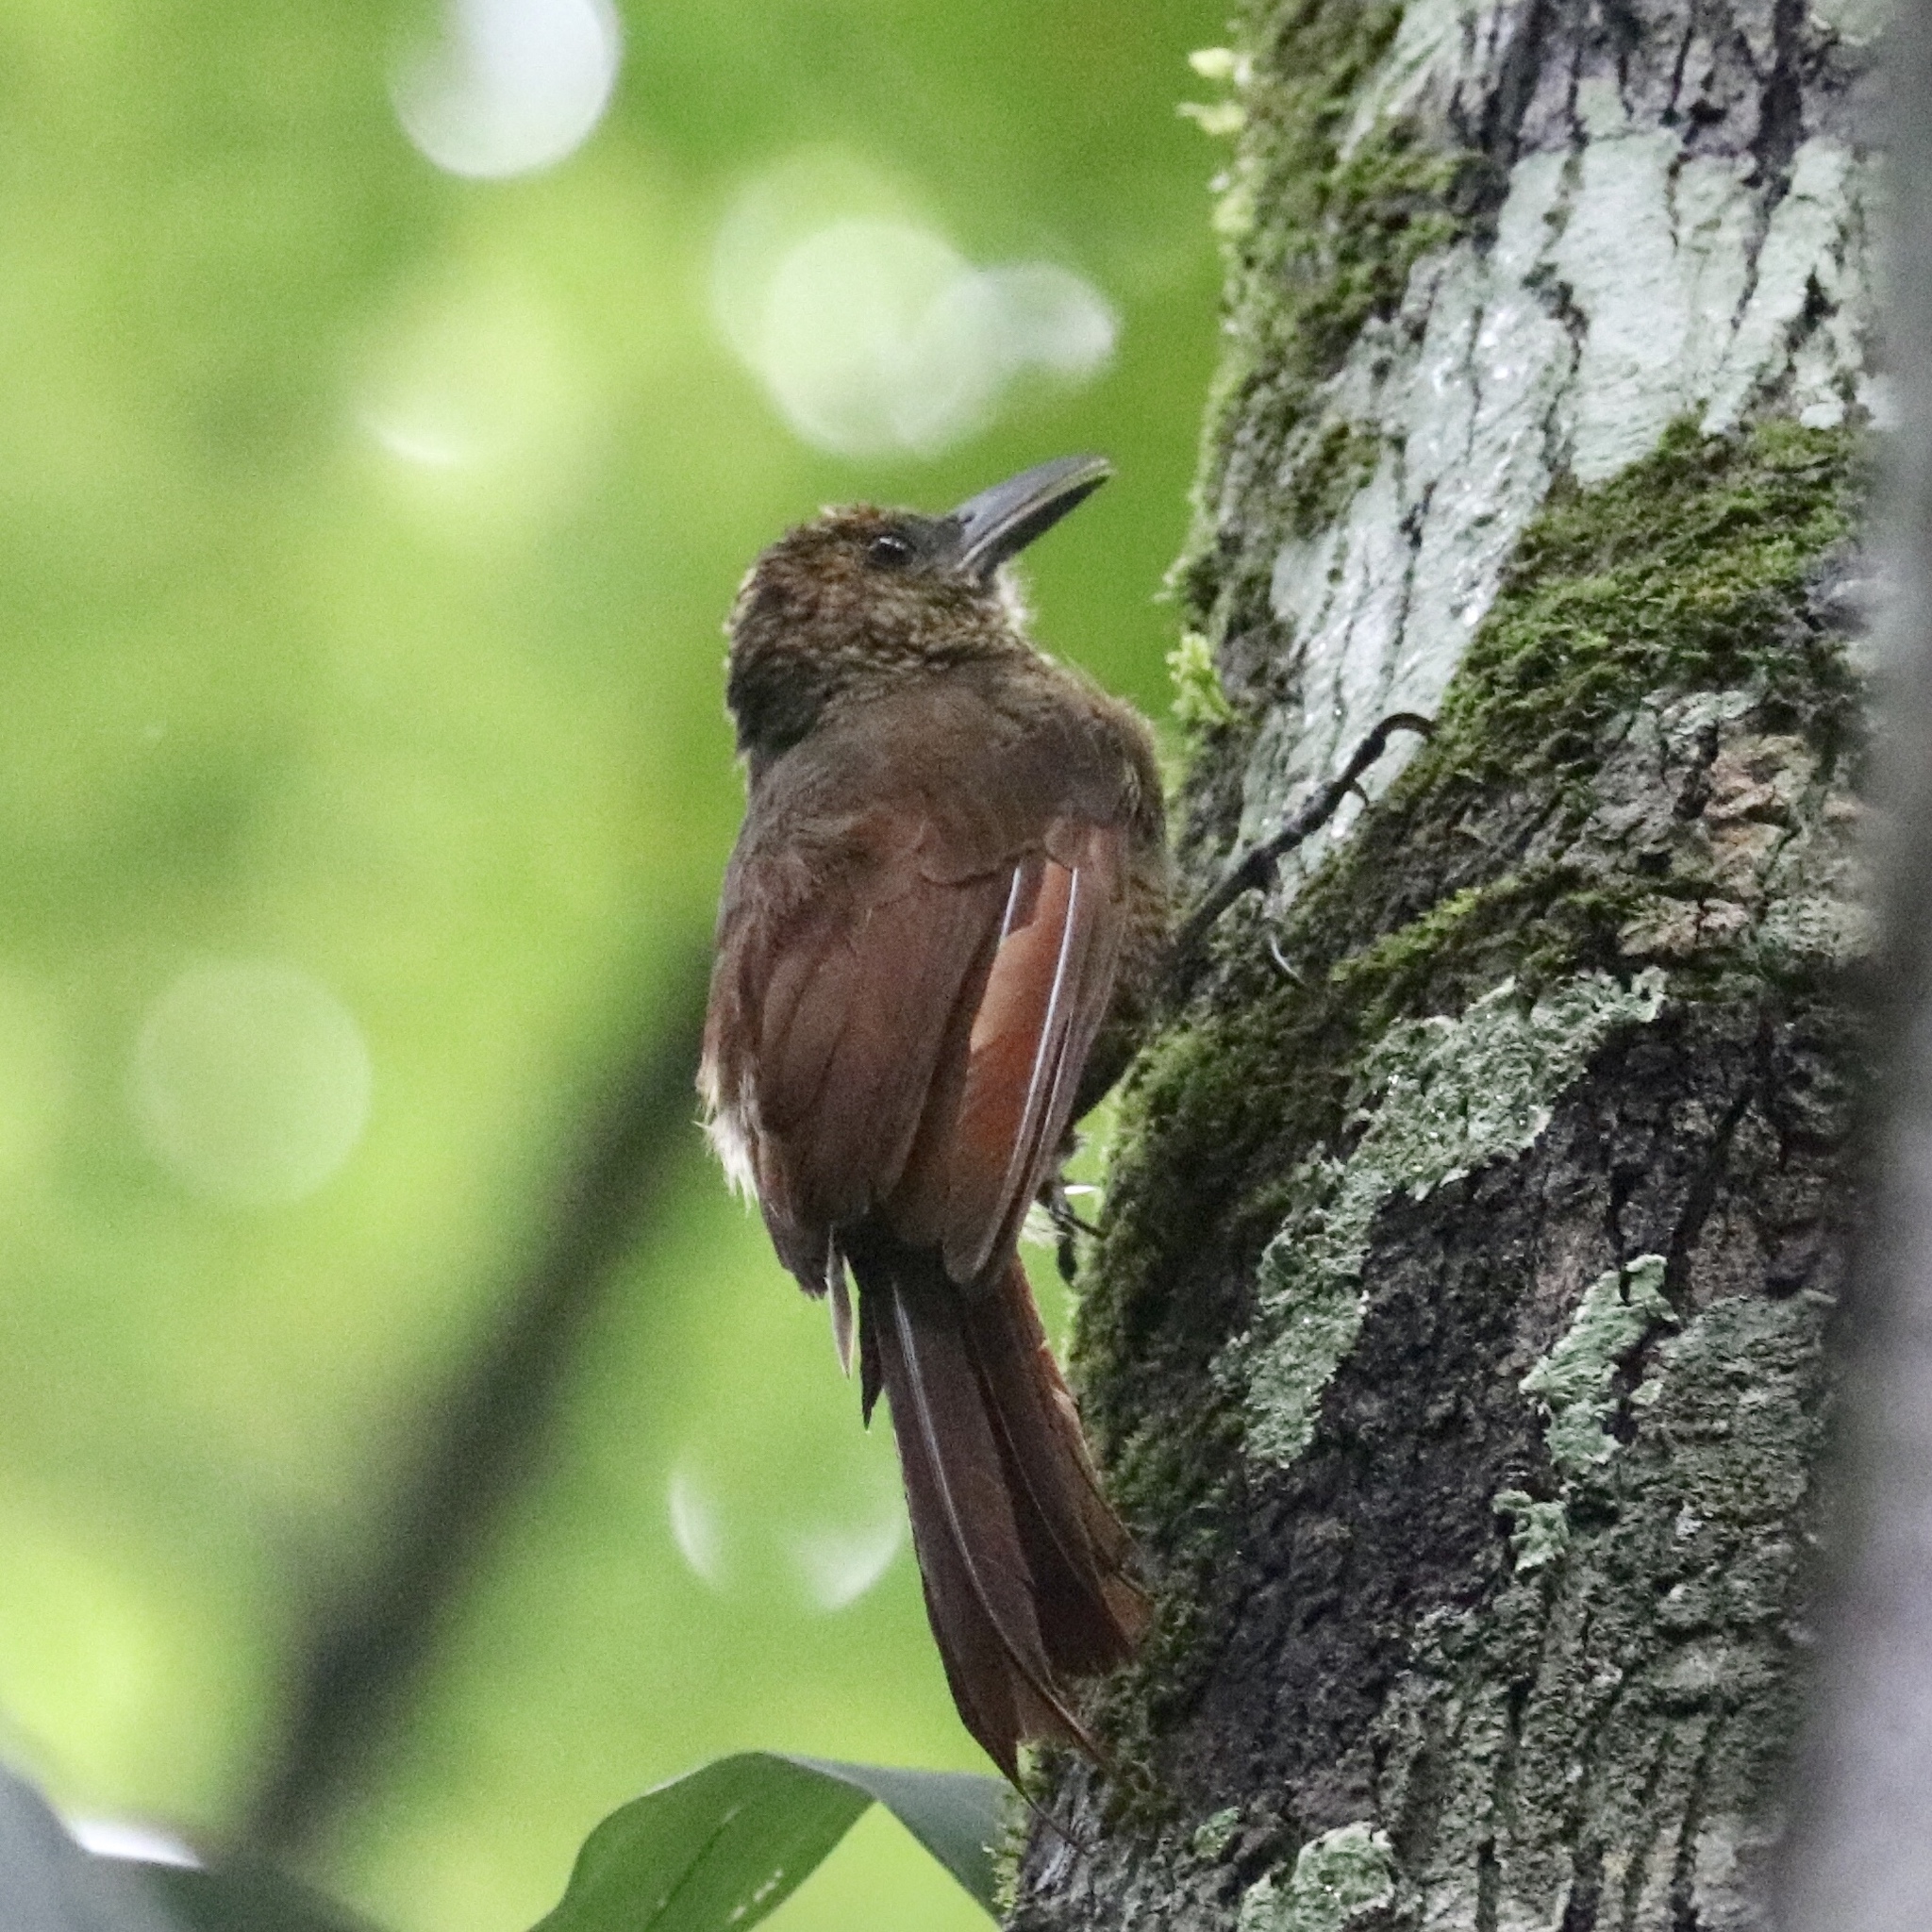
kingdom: Animalia
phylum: Chordata
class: Aves
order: Passeriformes
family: Furnariidae
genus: Dendrocincla
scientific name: Dendrocincla fuliginosa
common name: Plain-brown woodcreeper
